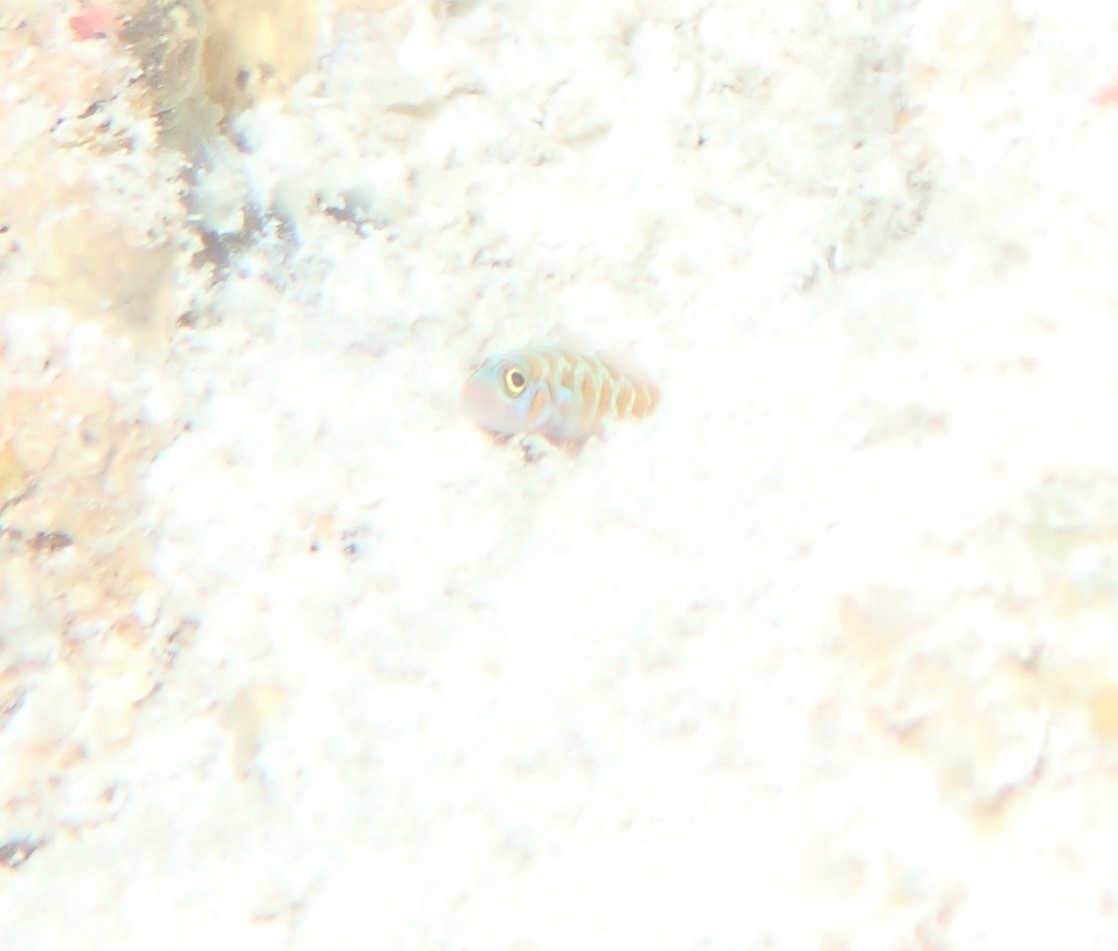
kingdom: Animalia
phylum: Chordata
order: Perciformes
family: Gobiidae
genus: Trimma
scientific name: Trimma maiandros
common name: Meander dwarfgoby
